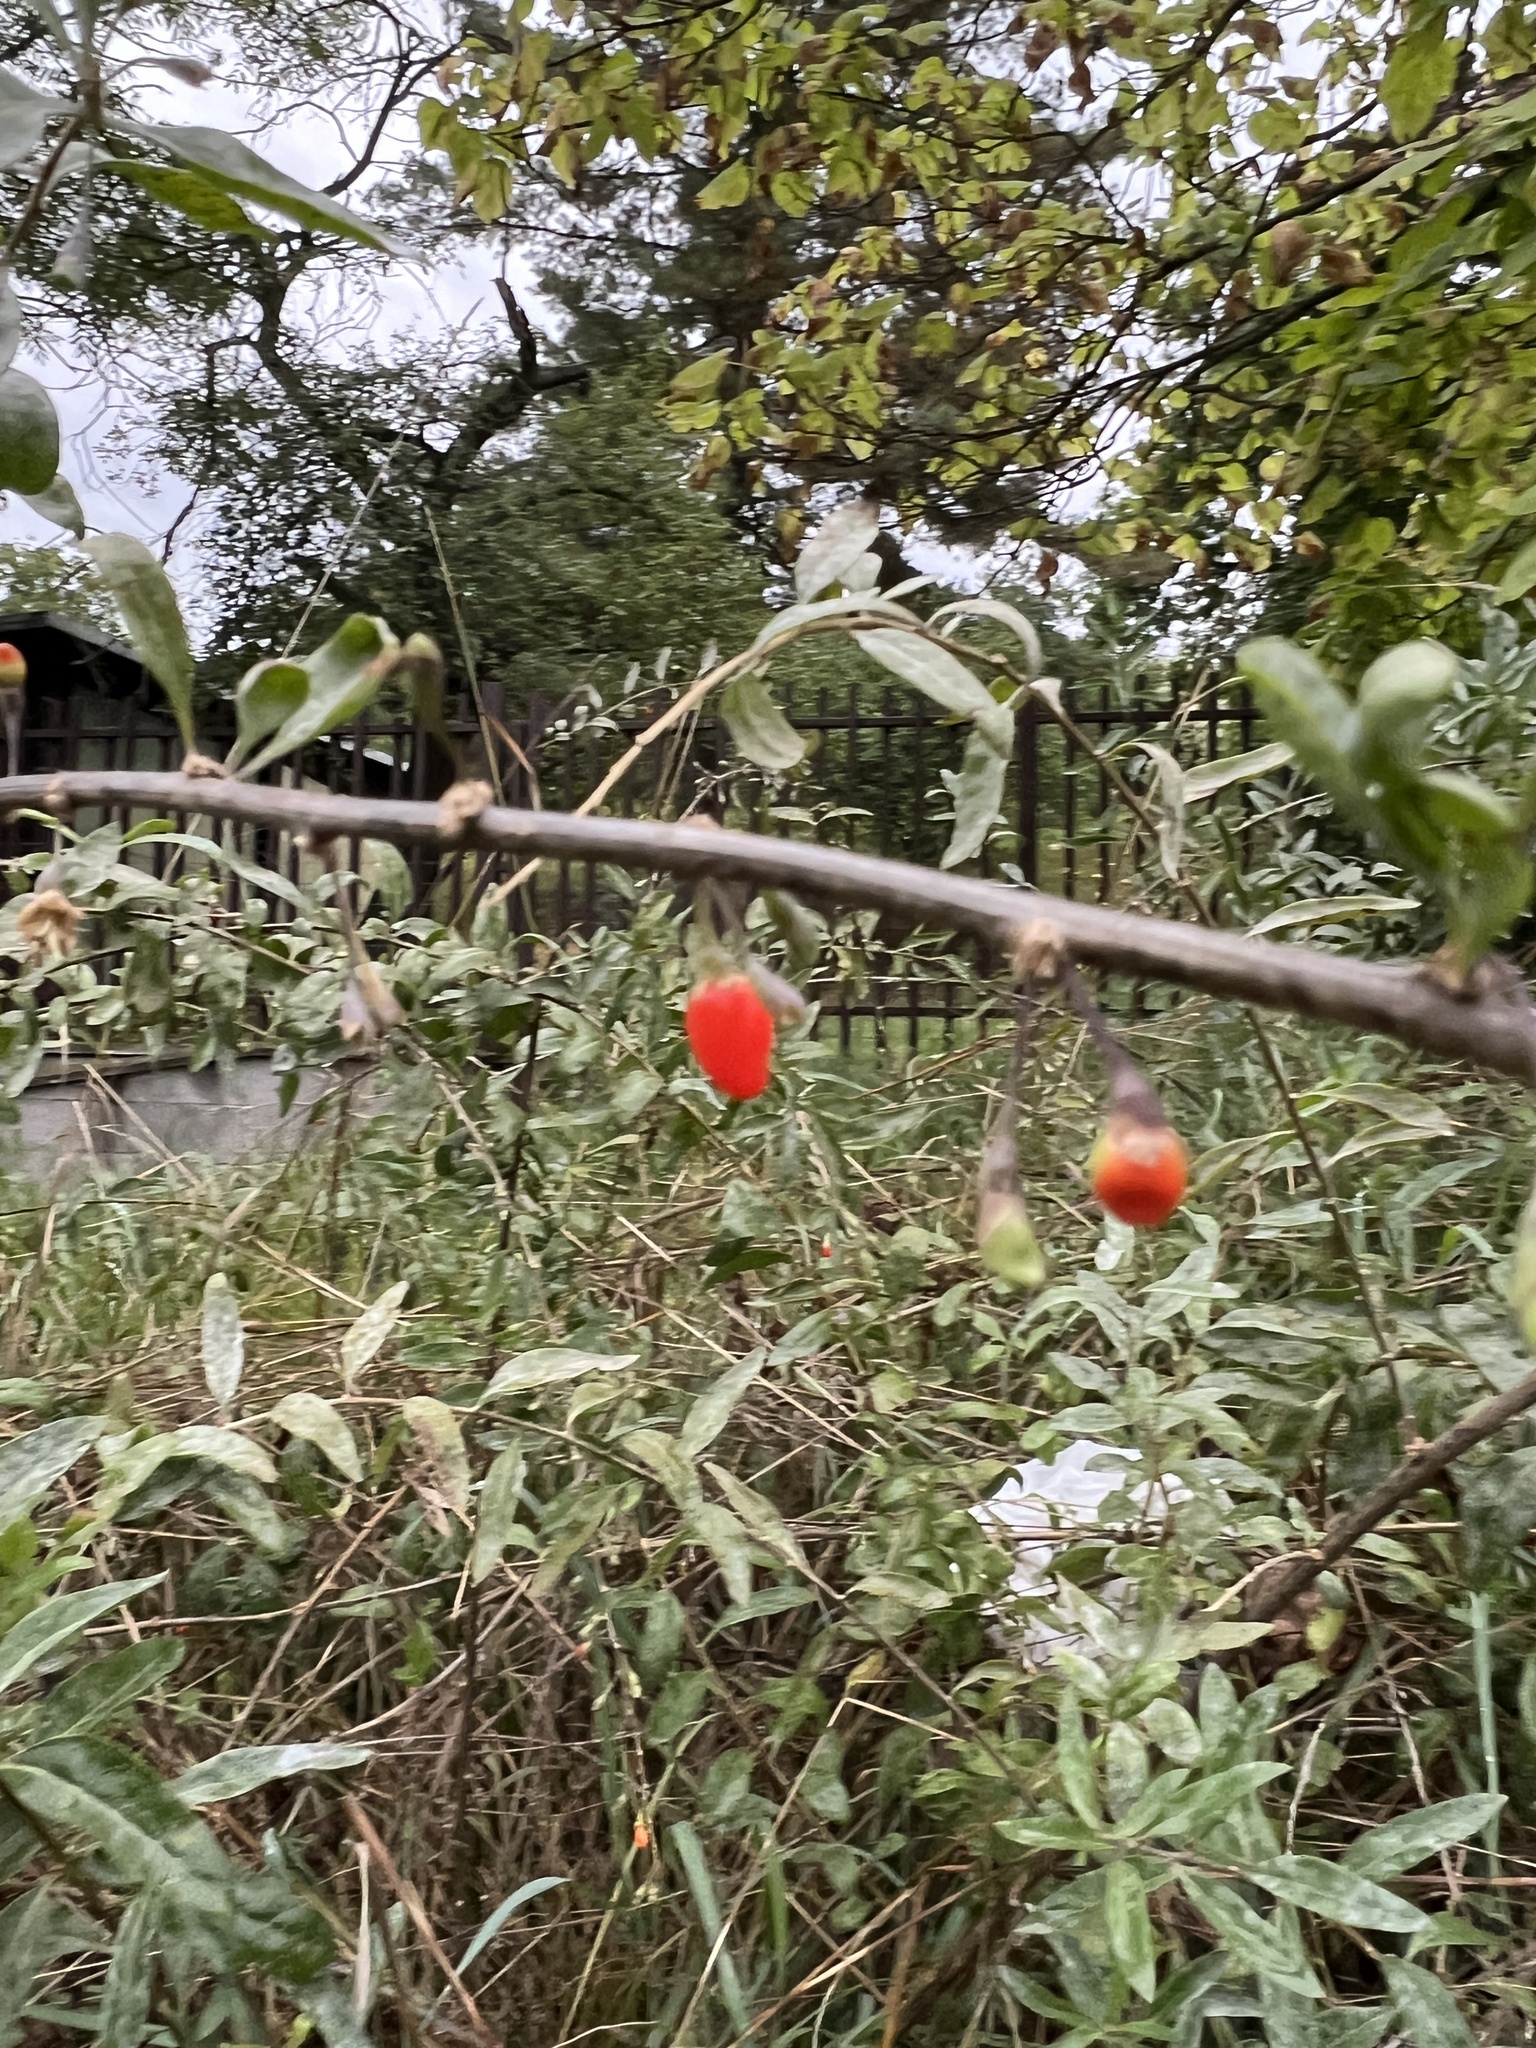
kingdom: Plantae
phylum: Tracheophyta
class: Magnoliopsida
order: Solanales
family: Solanaceae
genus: Lycium
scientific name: Lycium barbarum
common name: Duke of argyll's teaplant
